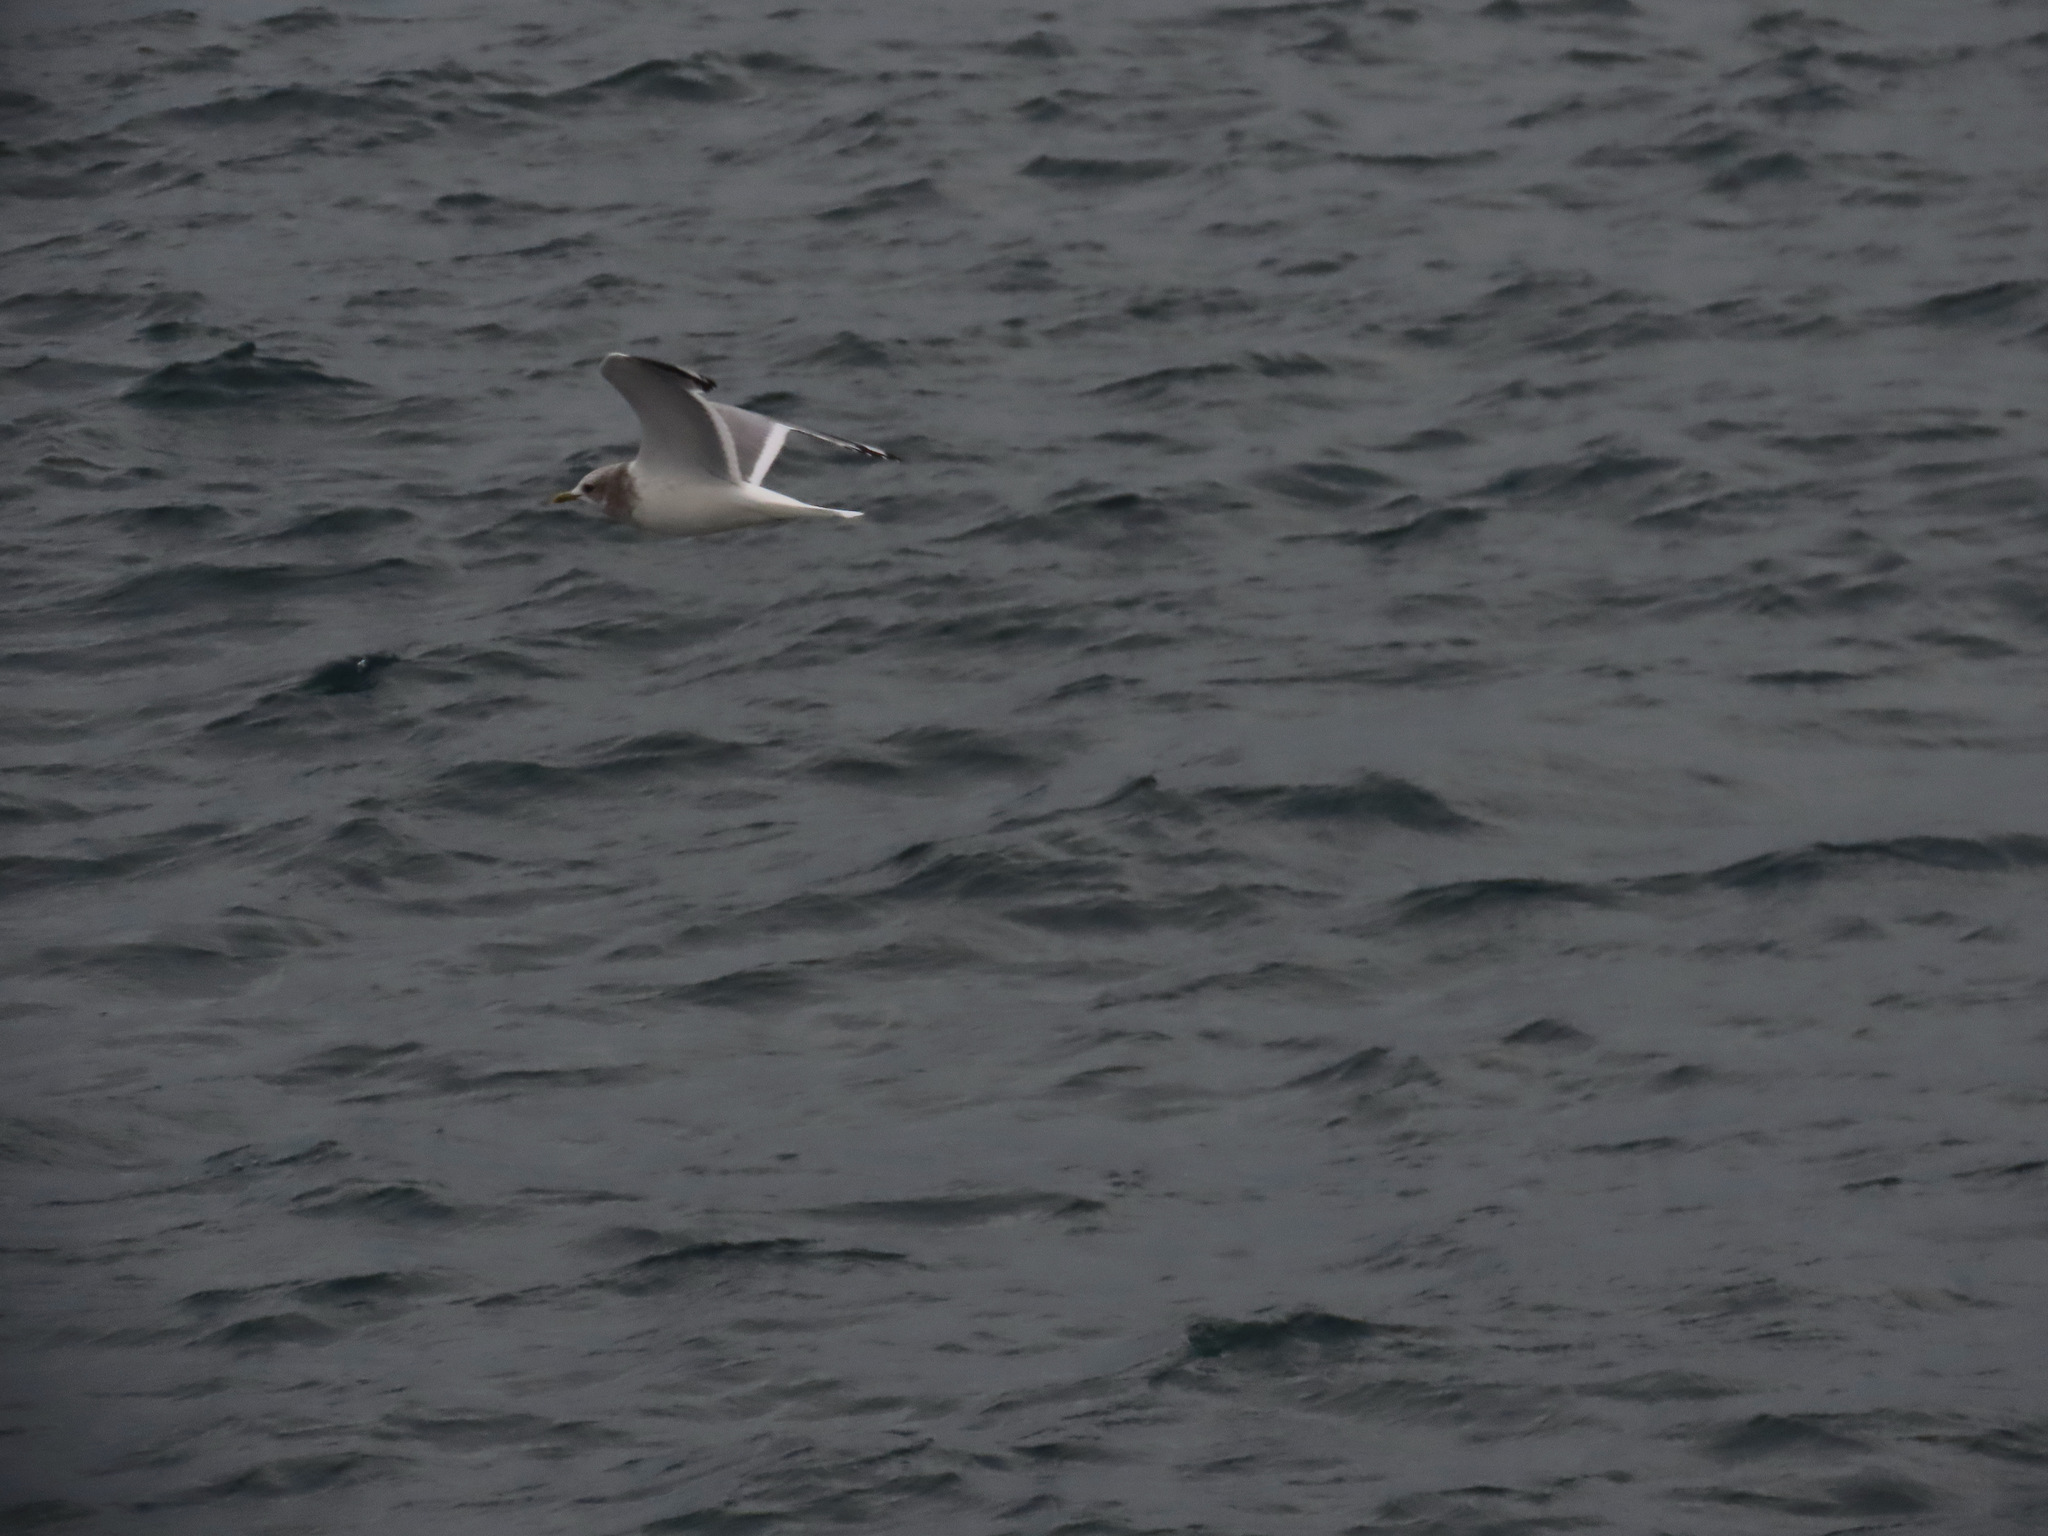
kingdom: Animalia
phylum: Chordata
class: Aves
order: Charadriiformes
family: Laridae
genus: Larus
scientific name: Larus brachyrhynchus
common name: Short-billed gull
